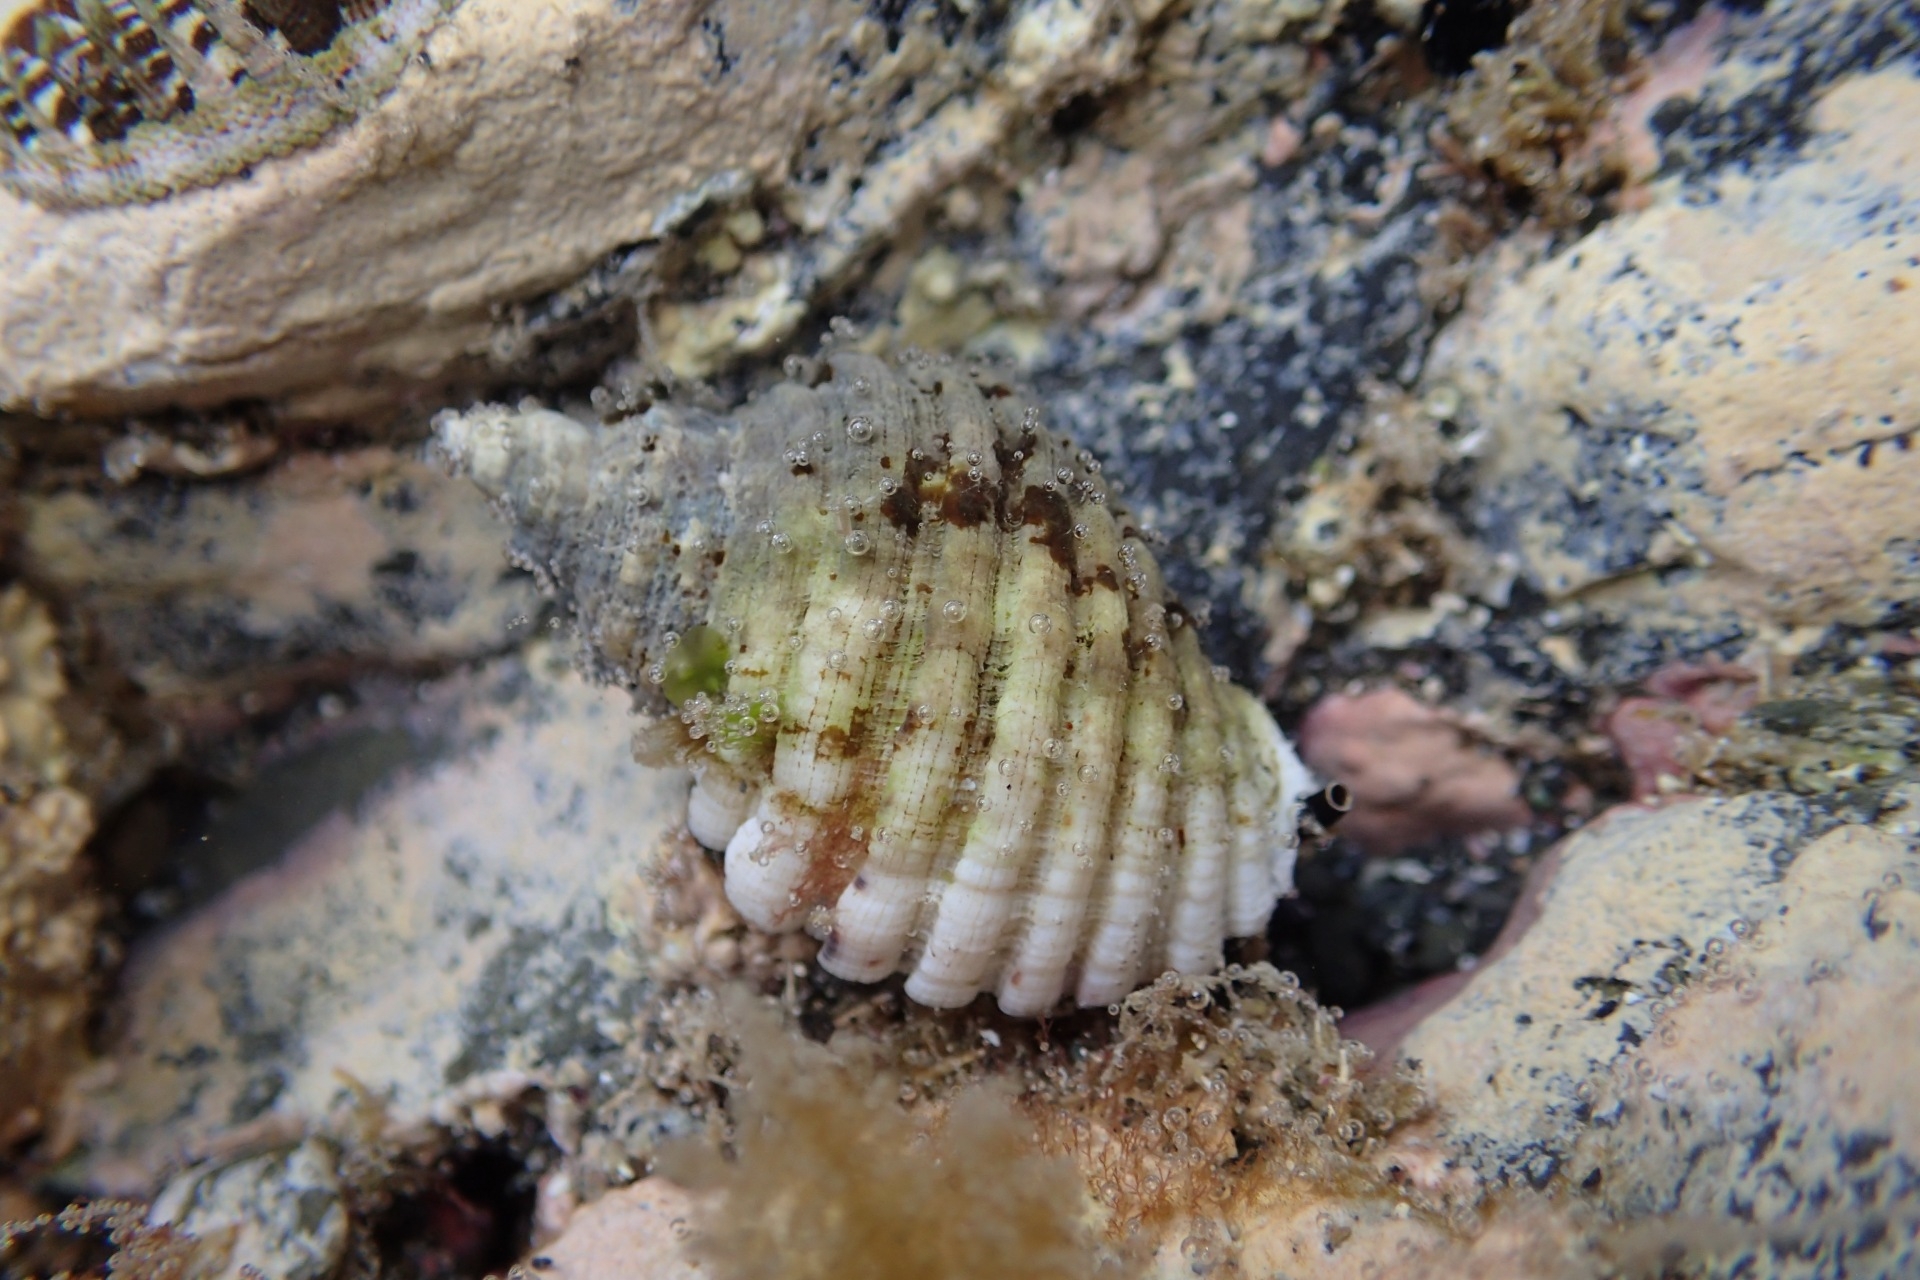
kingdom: Animalia
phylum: Mollusca
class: Gastropoda
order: Neogastropoda
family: Muricidae
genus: Dicathais
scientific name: Dicathais orbita
